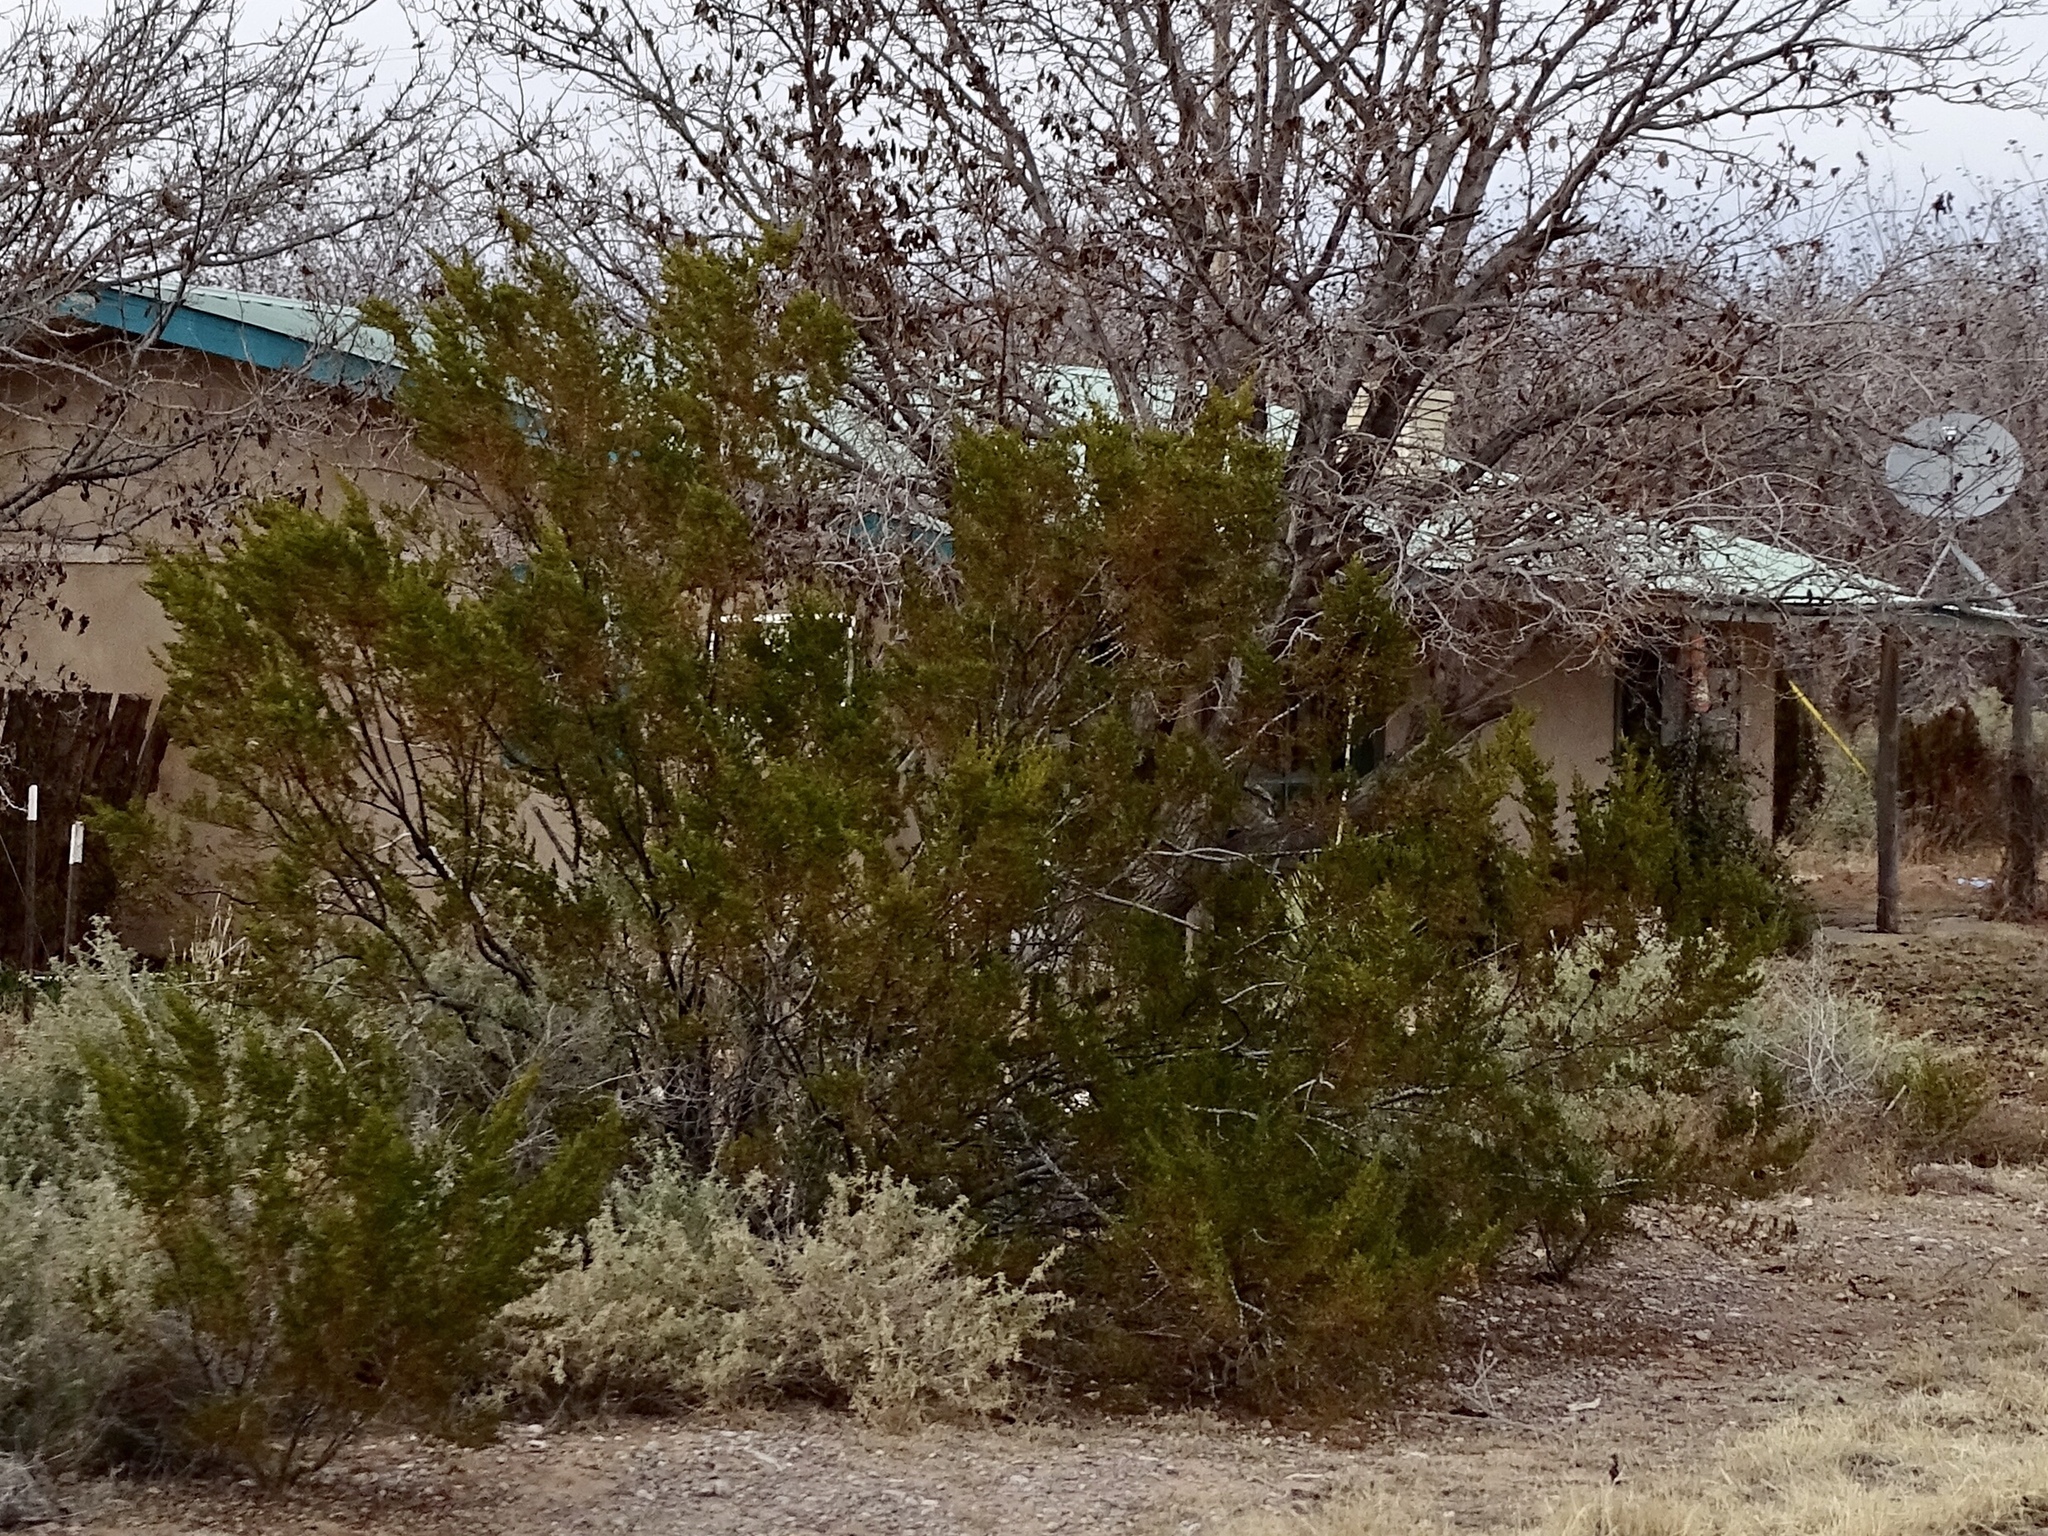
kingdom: Plantae
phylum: Tracheophyta
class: Magnoliopsida
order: Zygophyllales
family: Zygophyllaceae
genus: Larrea
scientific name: Larrea tridentata
